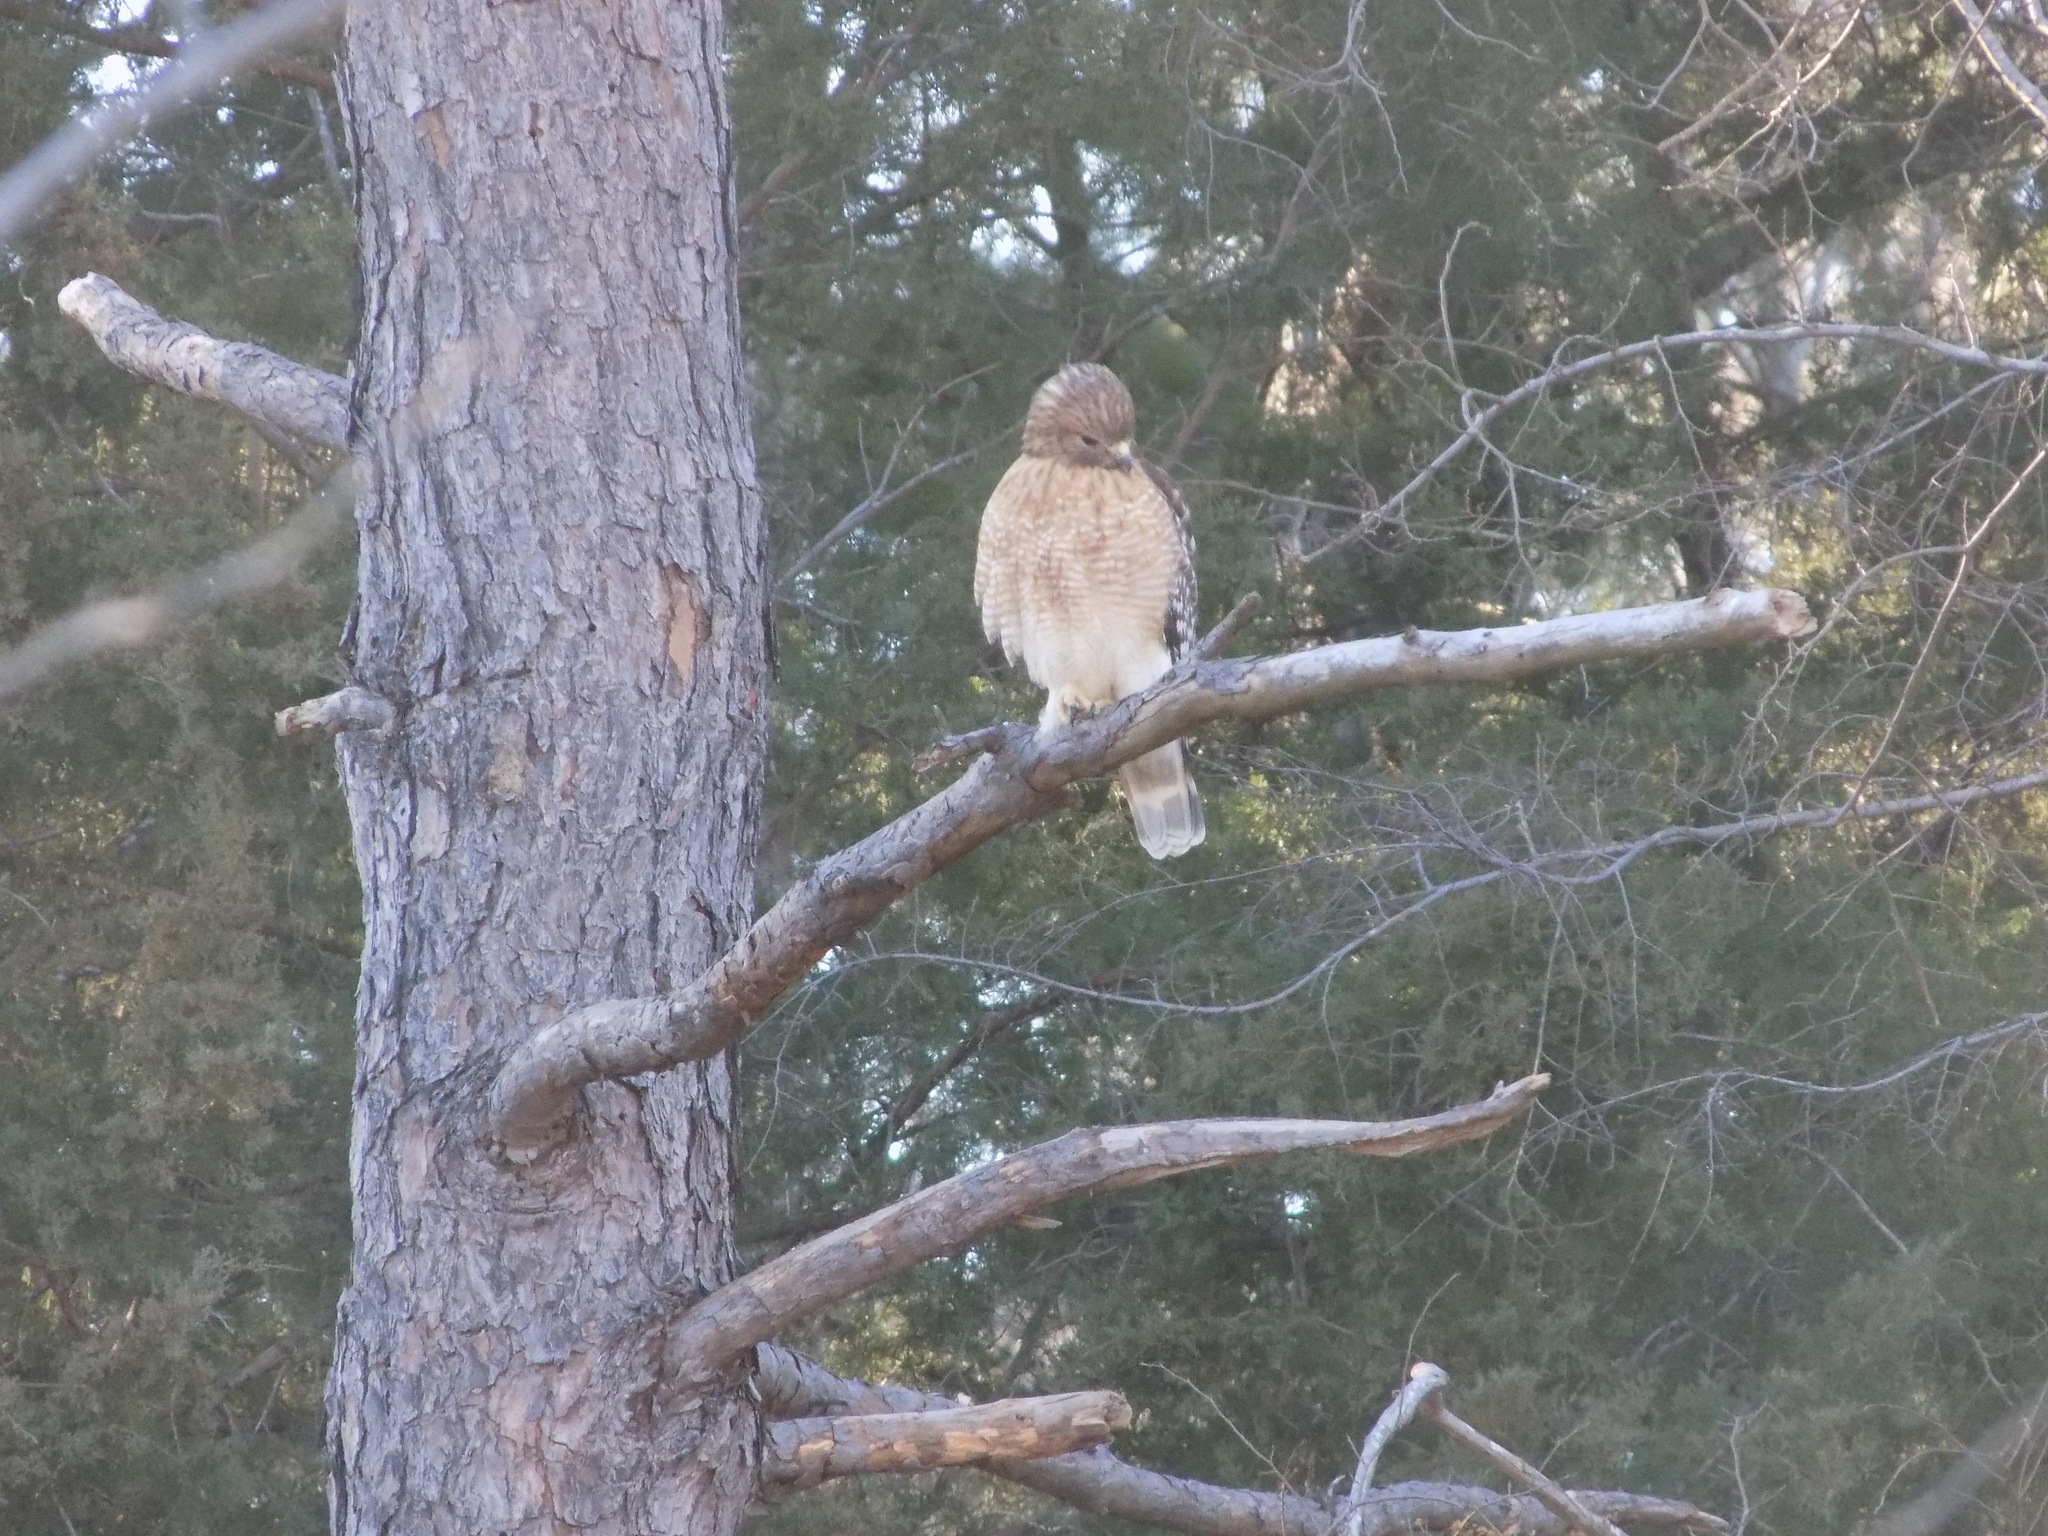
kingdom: Animalia
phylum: Chordata
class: Aves
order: Accipitriformes
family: Accipitridae
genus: Buteo
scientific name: Buteo lineatus
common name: Red-shouldered hawk
